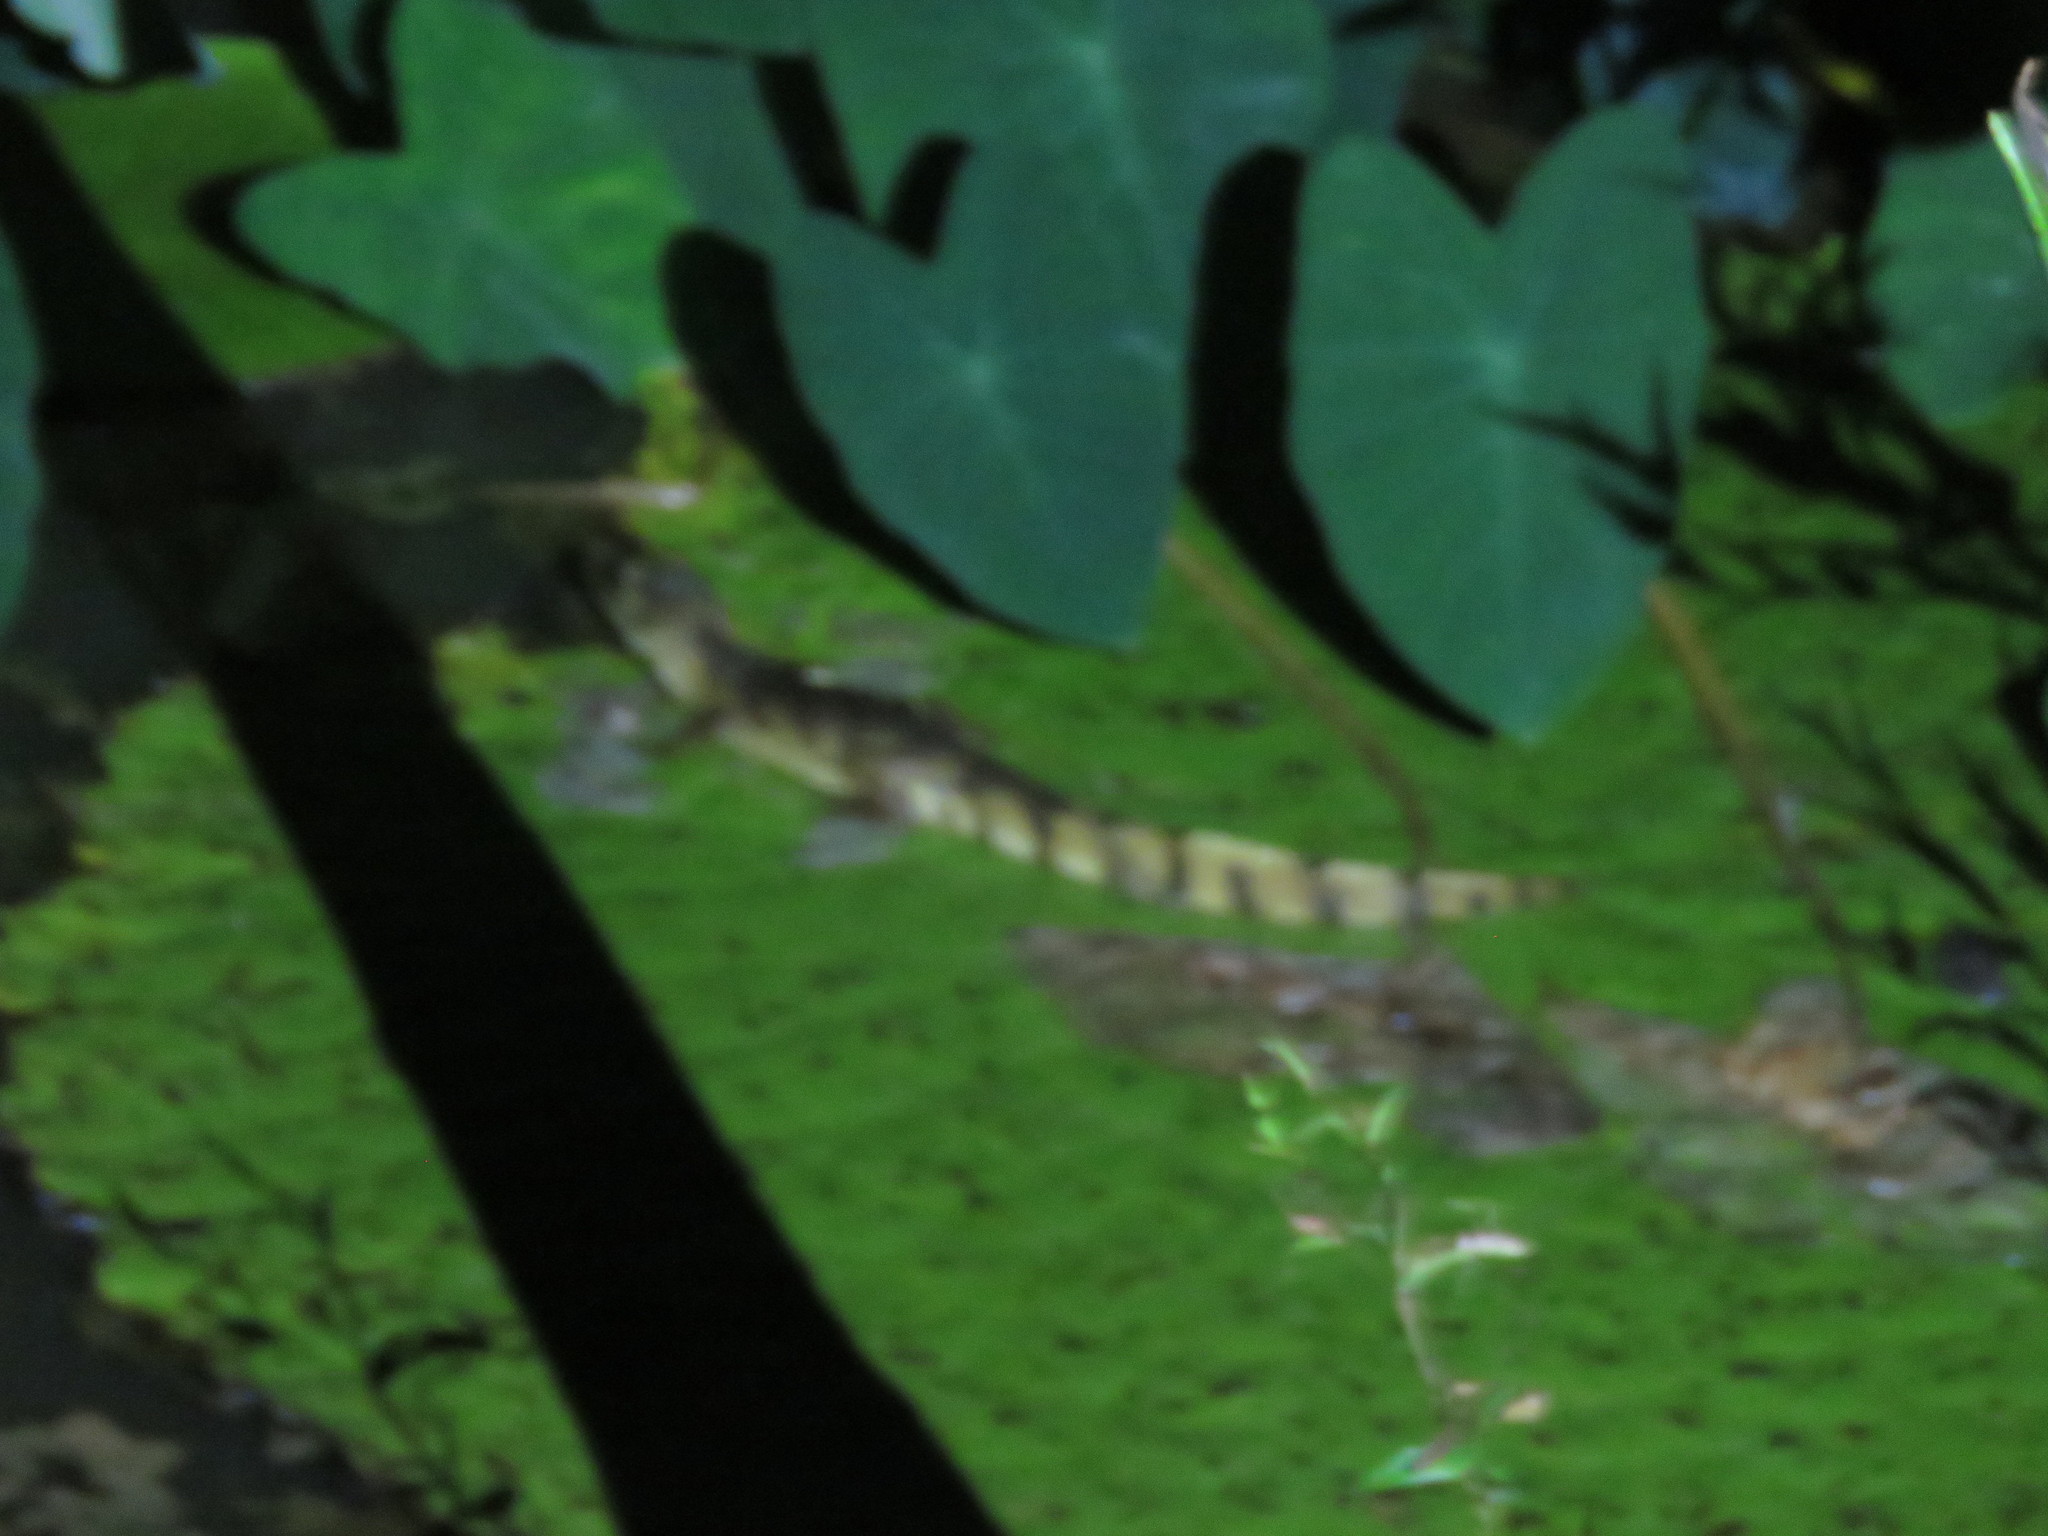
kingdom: Animalia
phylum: Chordata
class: Crocodylia
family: Alligatoridae
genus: Caiman
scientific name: Caiman crocodilus
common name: Common caiman
